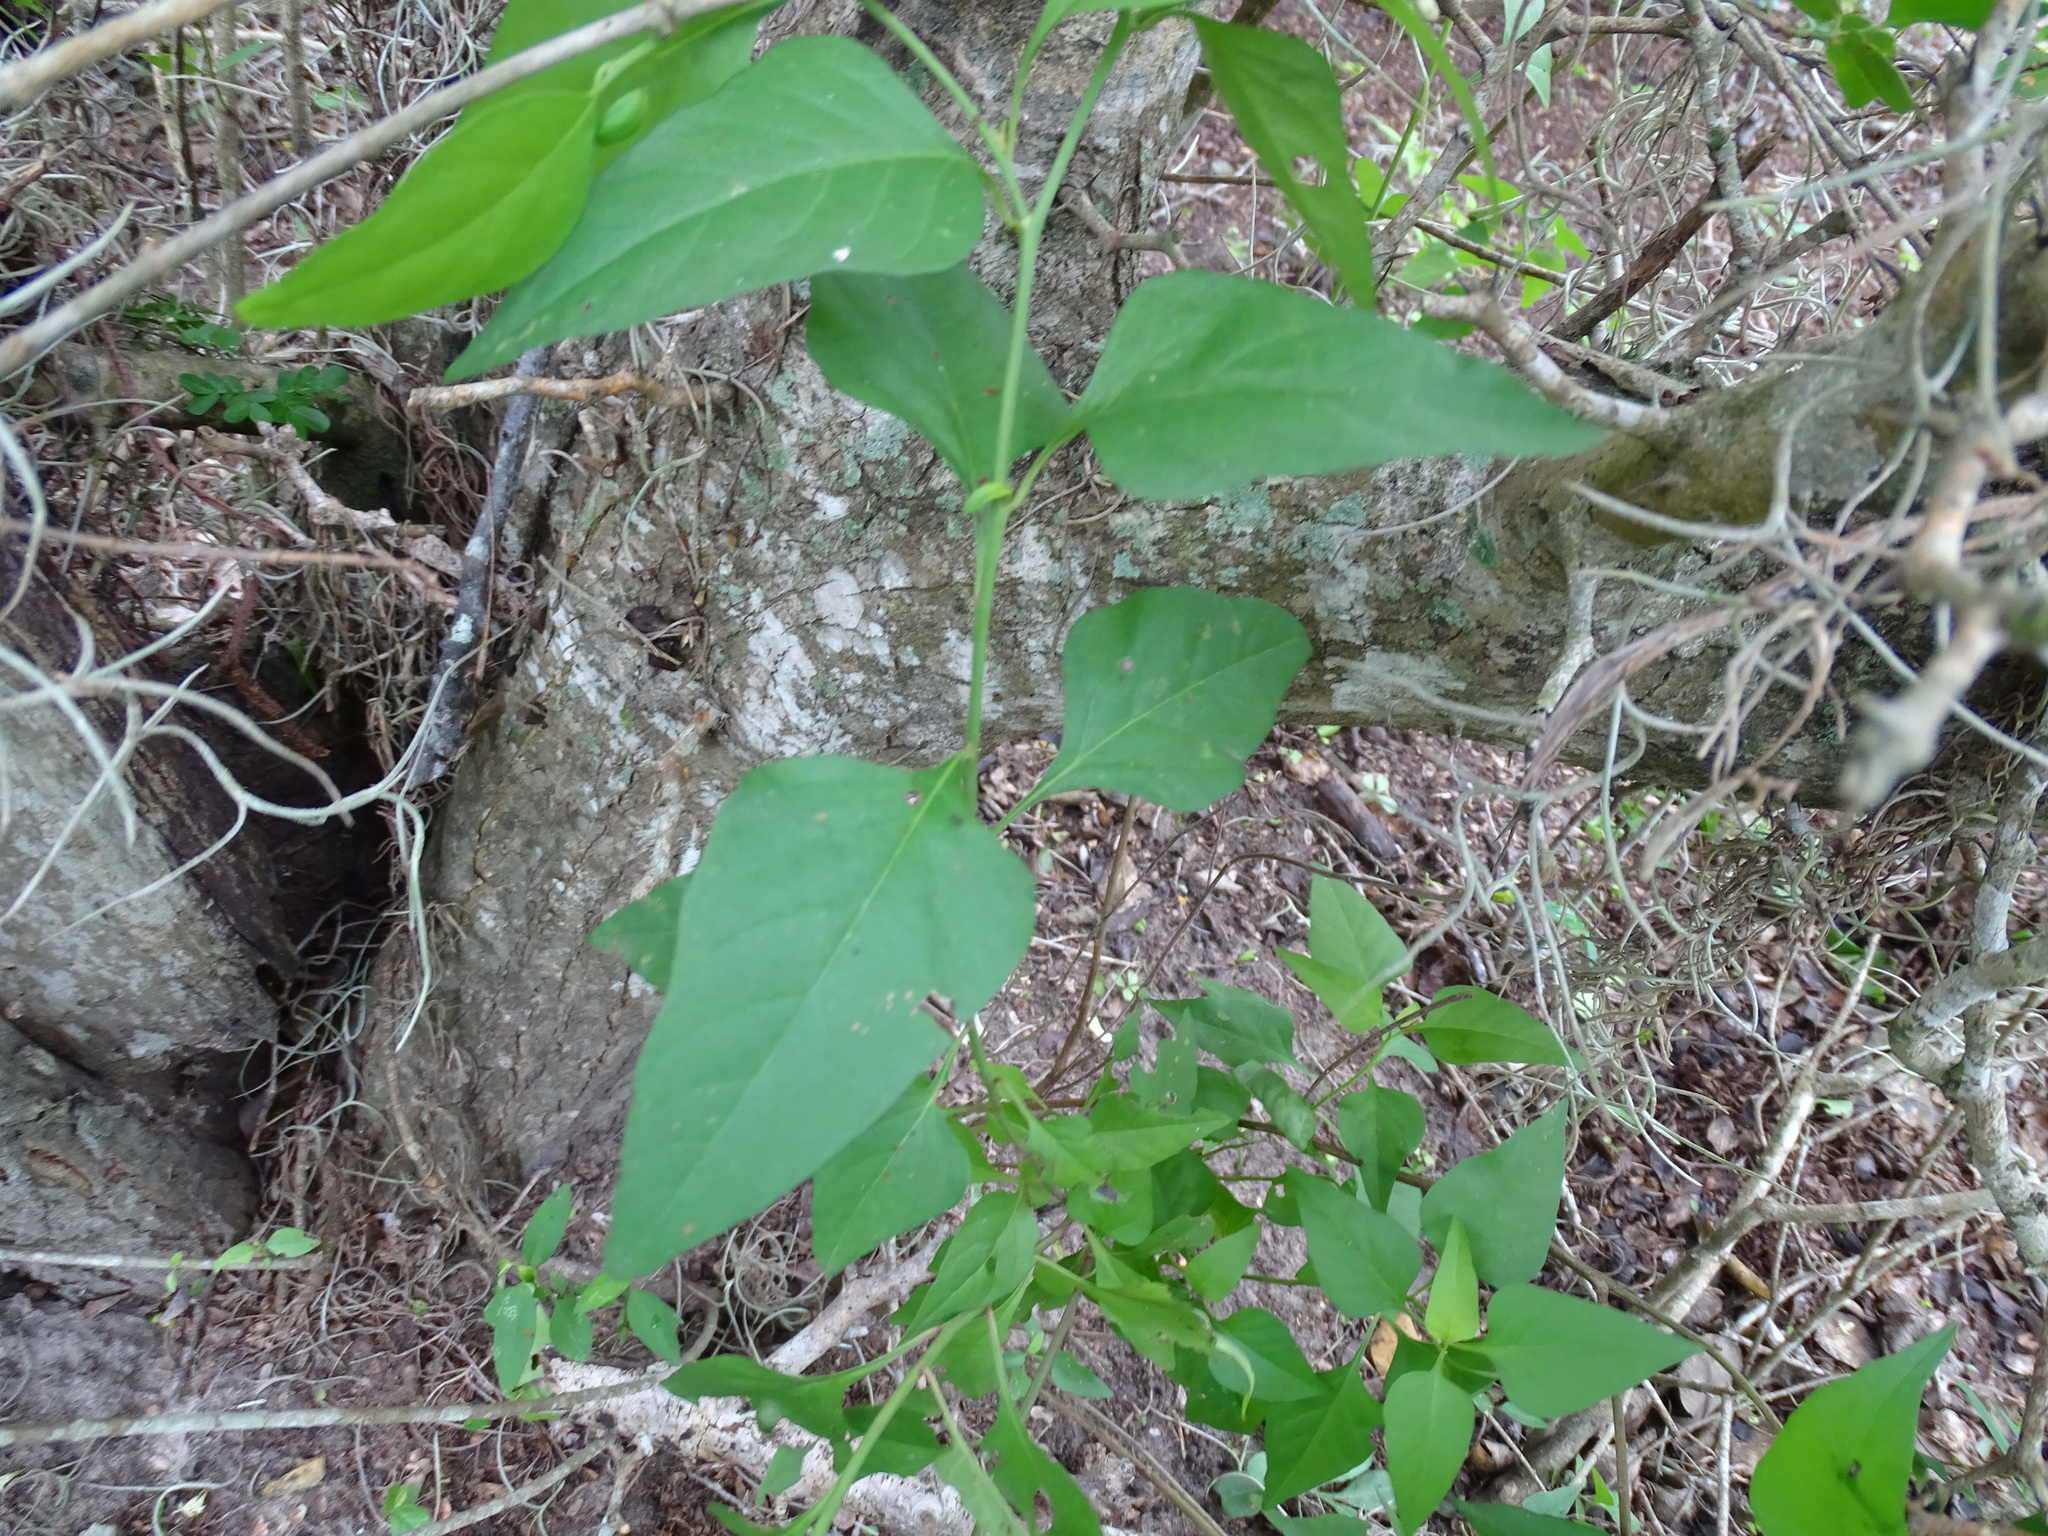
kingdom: Plantae
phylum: Tracheophyta
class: Magnoliopsida
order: Caryophyllales
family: Amaranthaceae
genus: Celosia
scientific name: Celosia nitida
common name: West indian cock's comb
